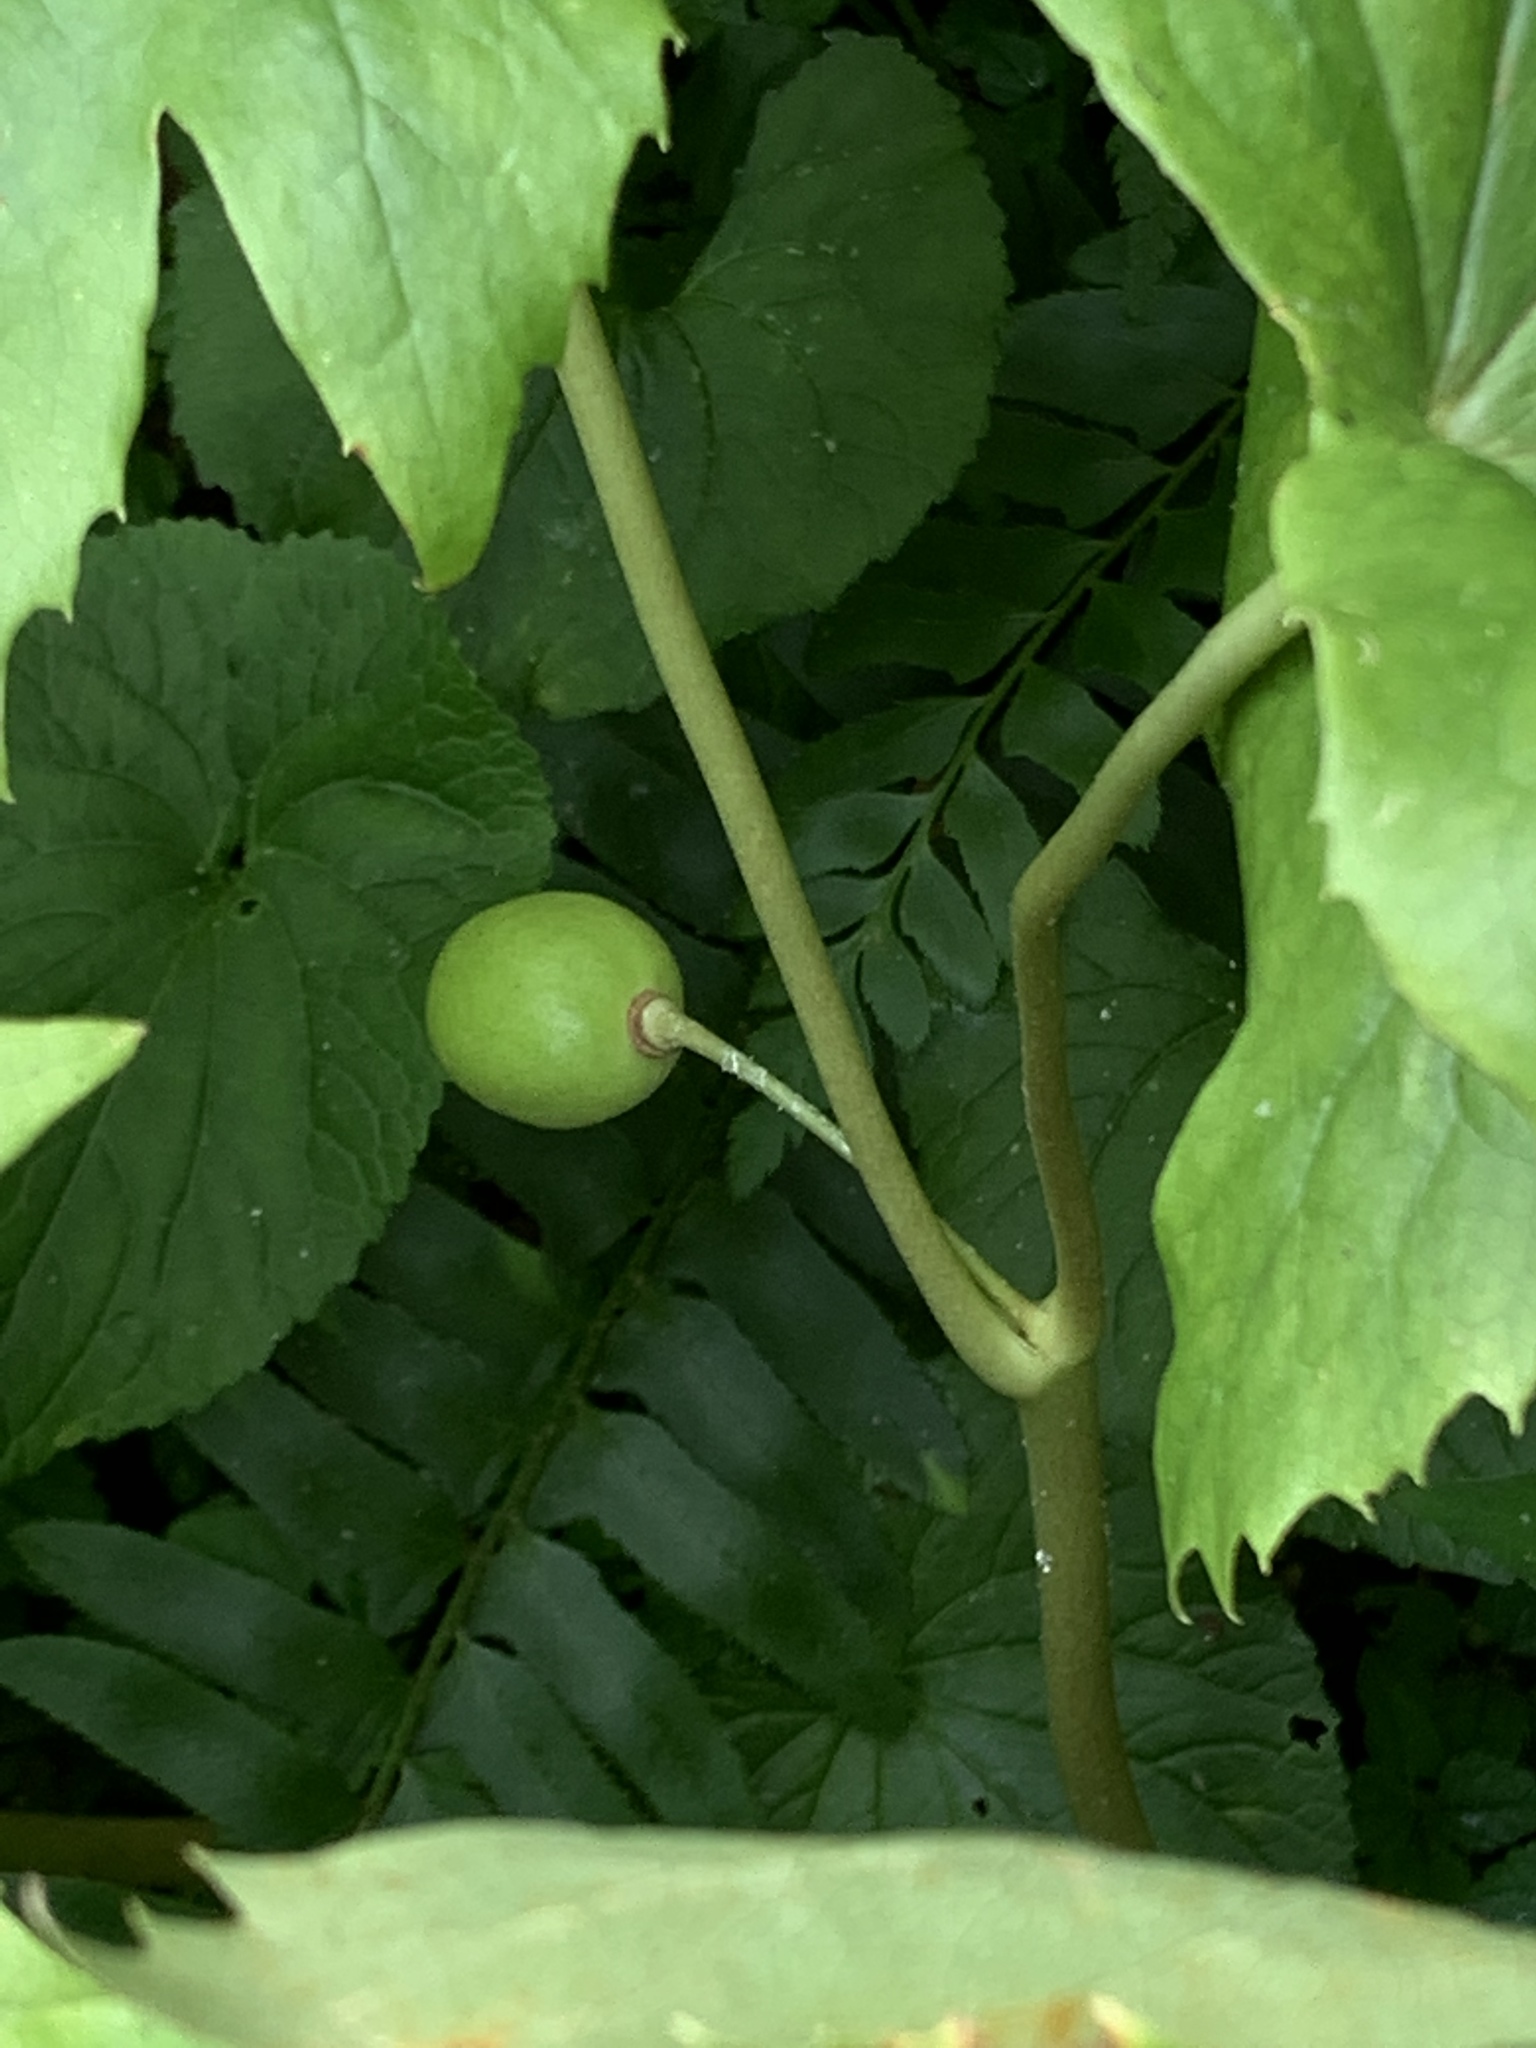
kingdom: Plantae
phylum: Tracheophyta
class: Magnoliopsida
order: Ranunculales
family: Berberidaceae
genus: Podophyllum
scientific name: Podophyllum peltatum
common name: Wild mandrake
